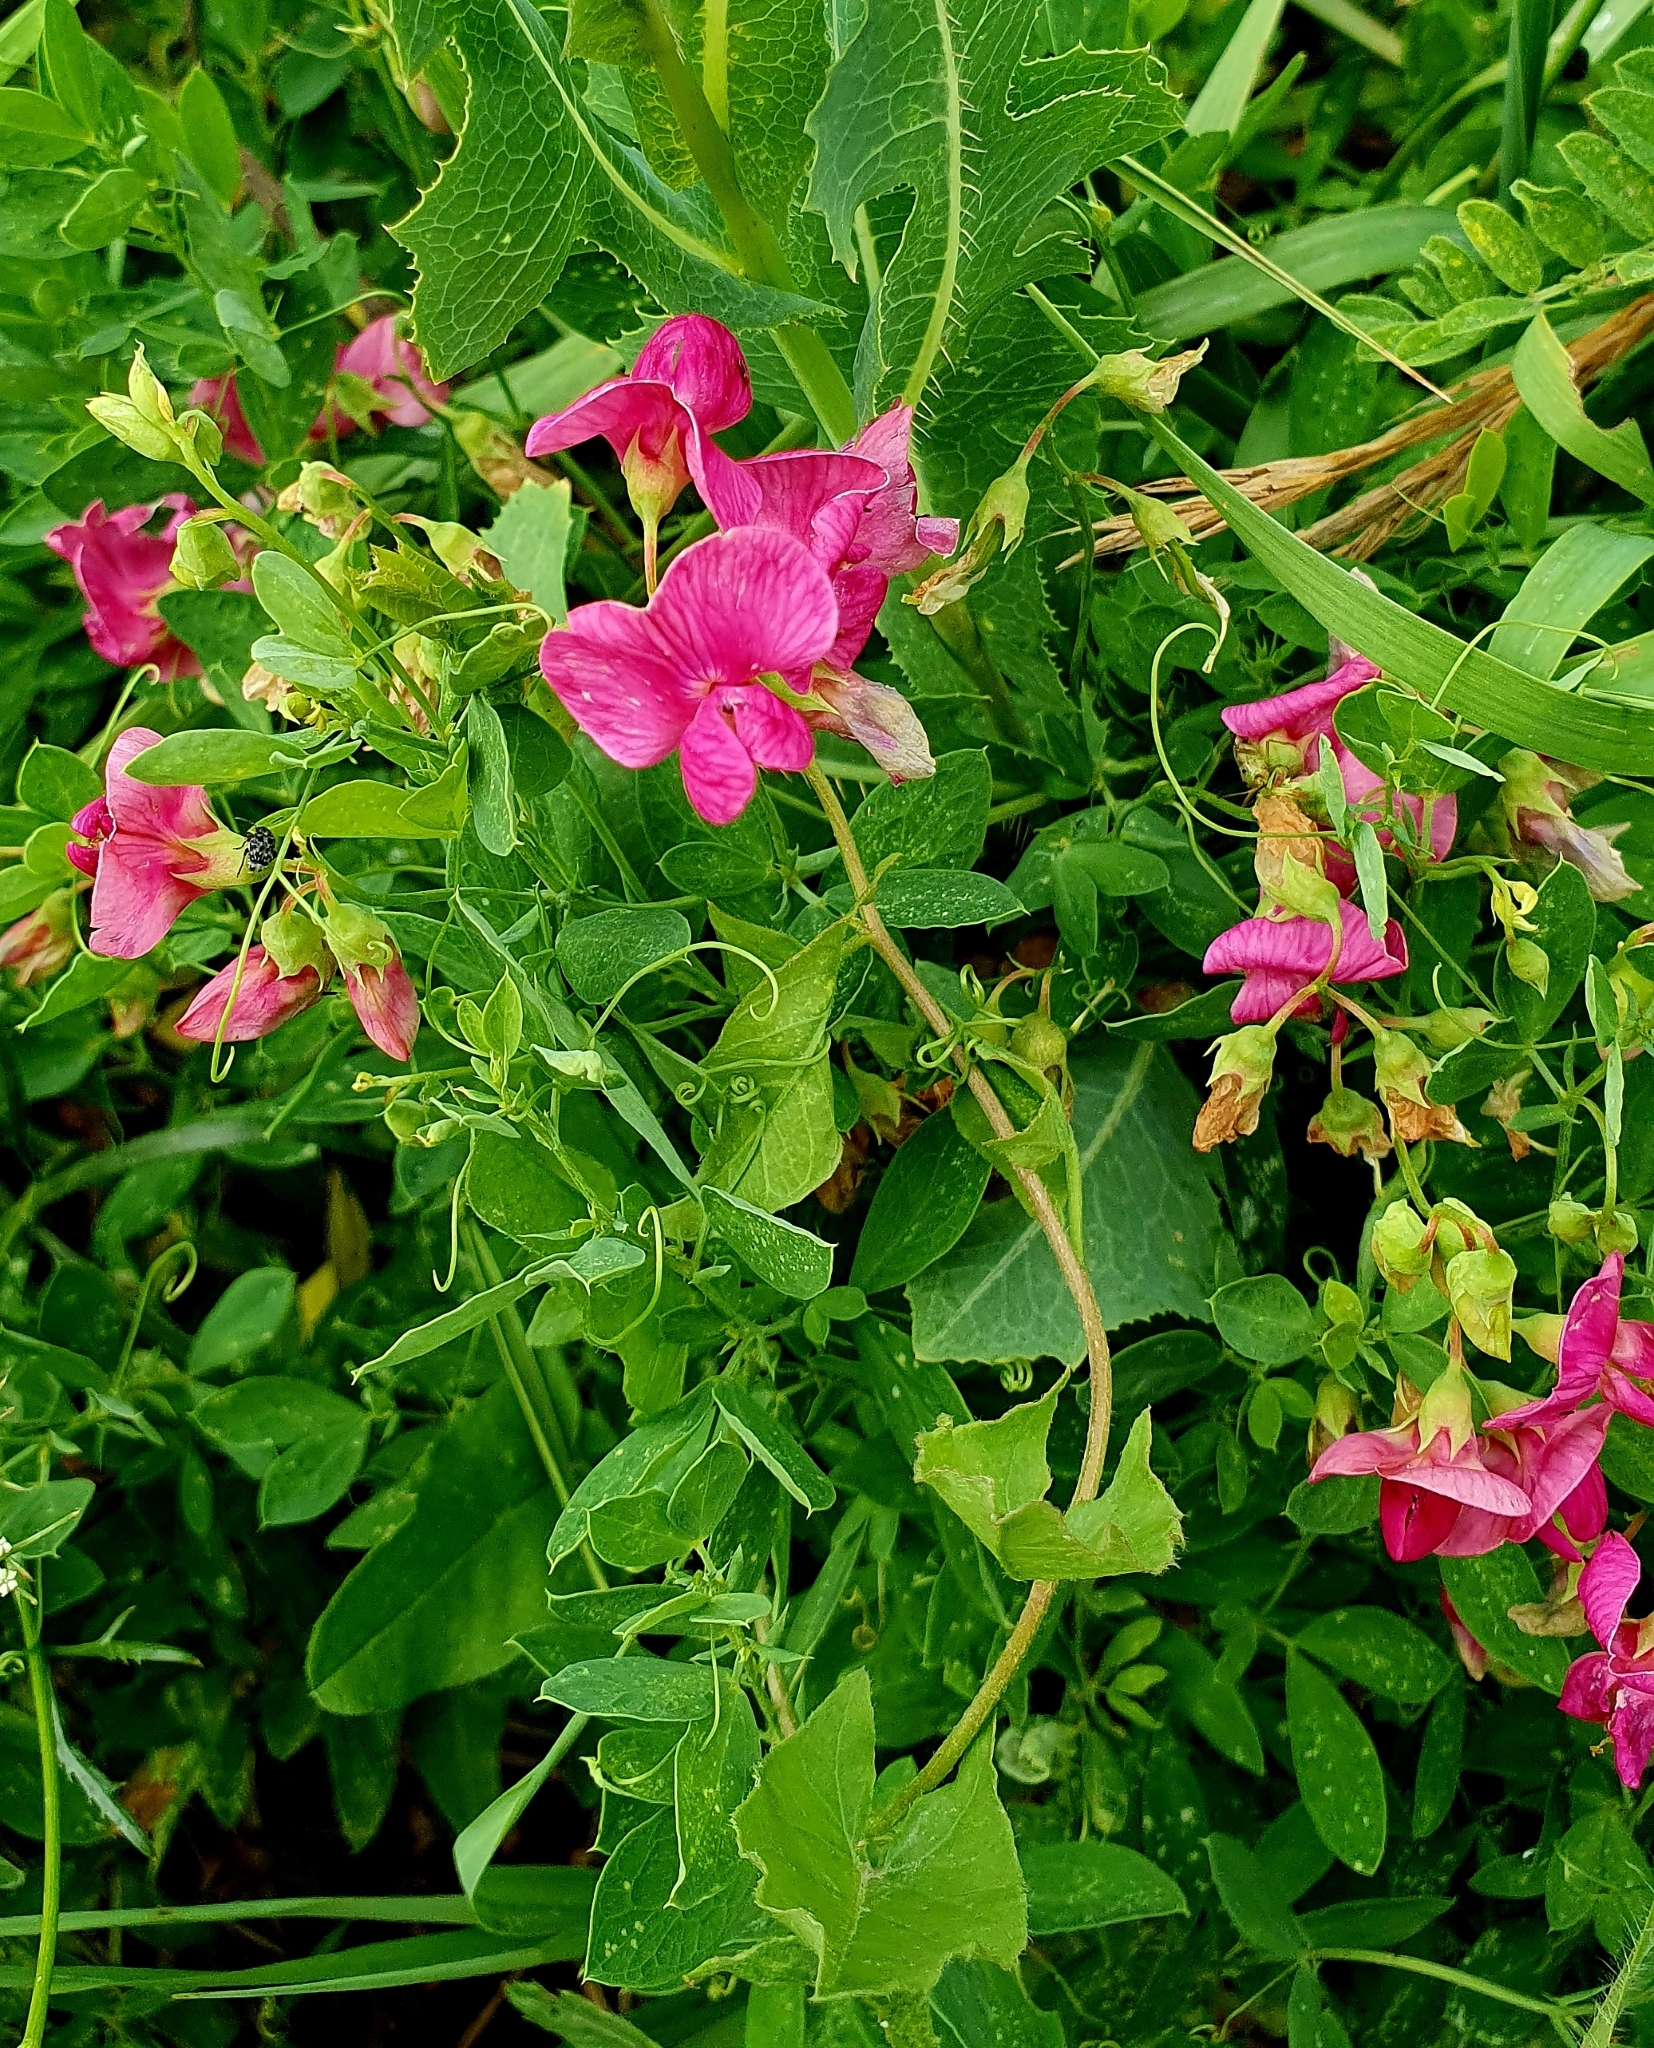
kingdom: Plantae
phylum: Tracheophyta
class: Magnoliopsida
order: Fabales
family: Fabaceae
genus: Lathyrus
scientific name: Lathyrus tuberosus
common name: Tuberous pea
